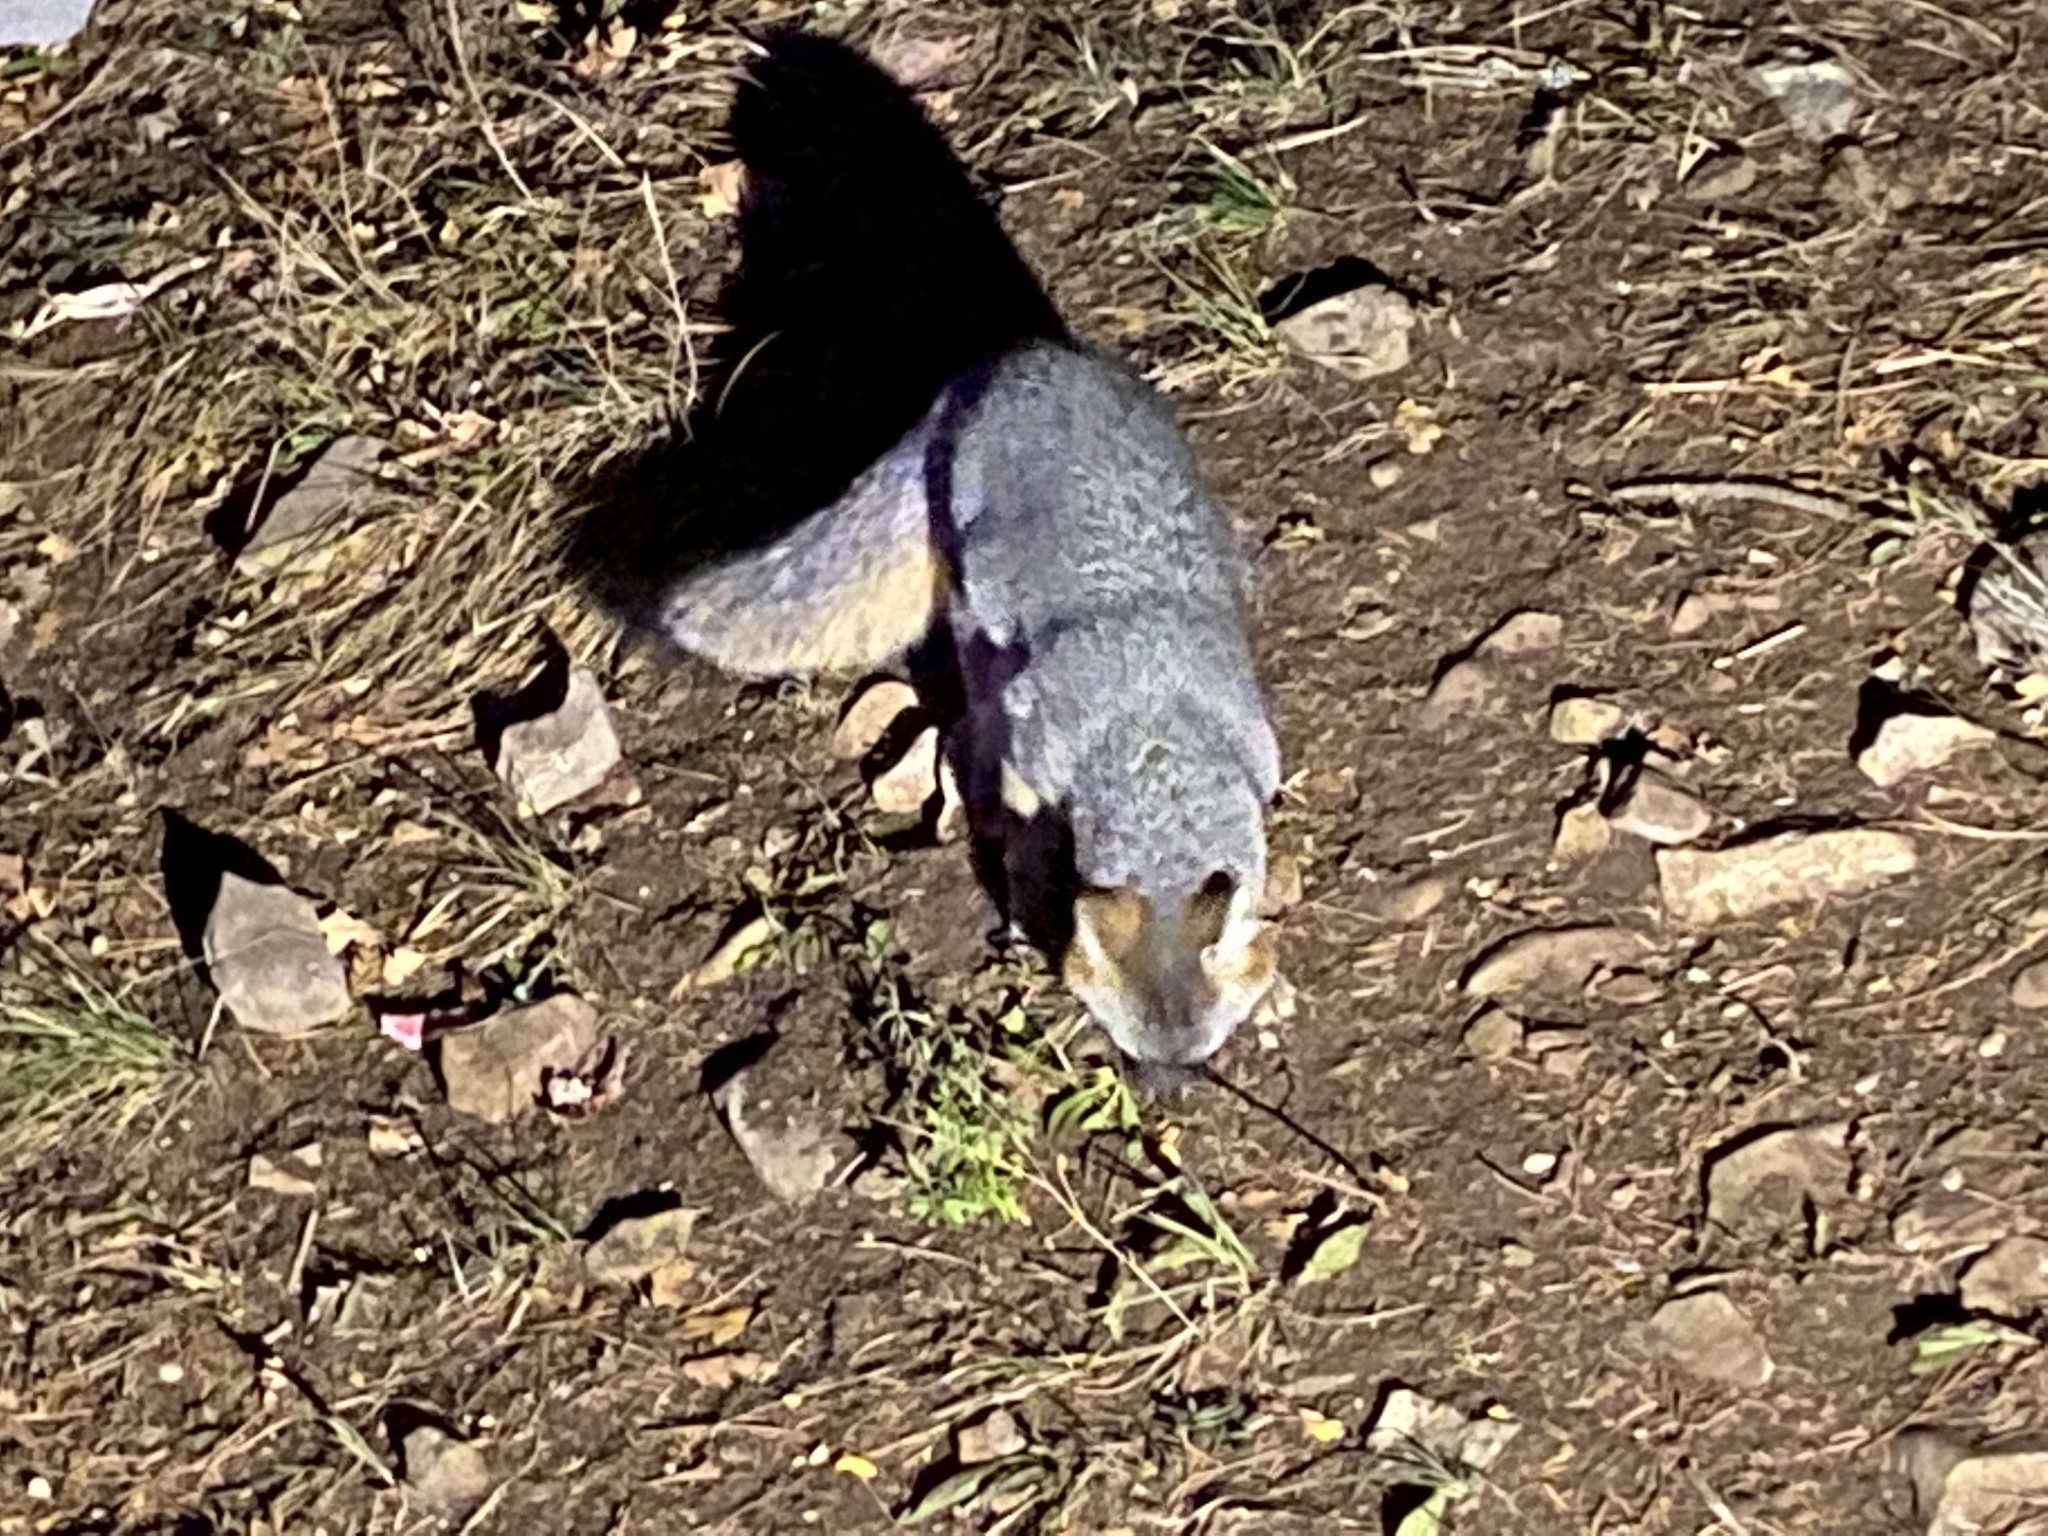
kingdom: Animalia
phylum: Chordata
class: Mammalia
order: Carnivora
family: Canidae
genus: Urocyon
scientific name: Urocyon cinereoargenteus
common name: Gray fox
